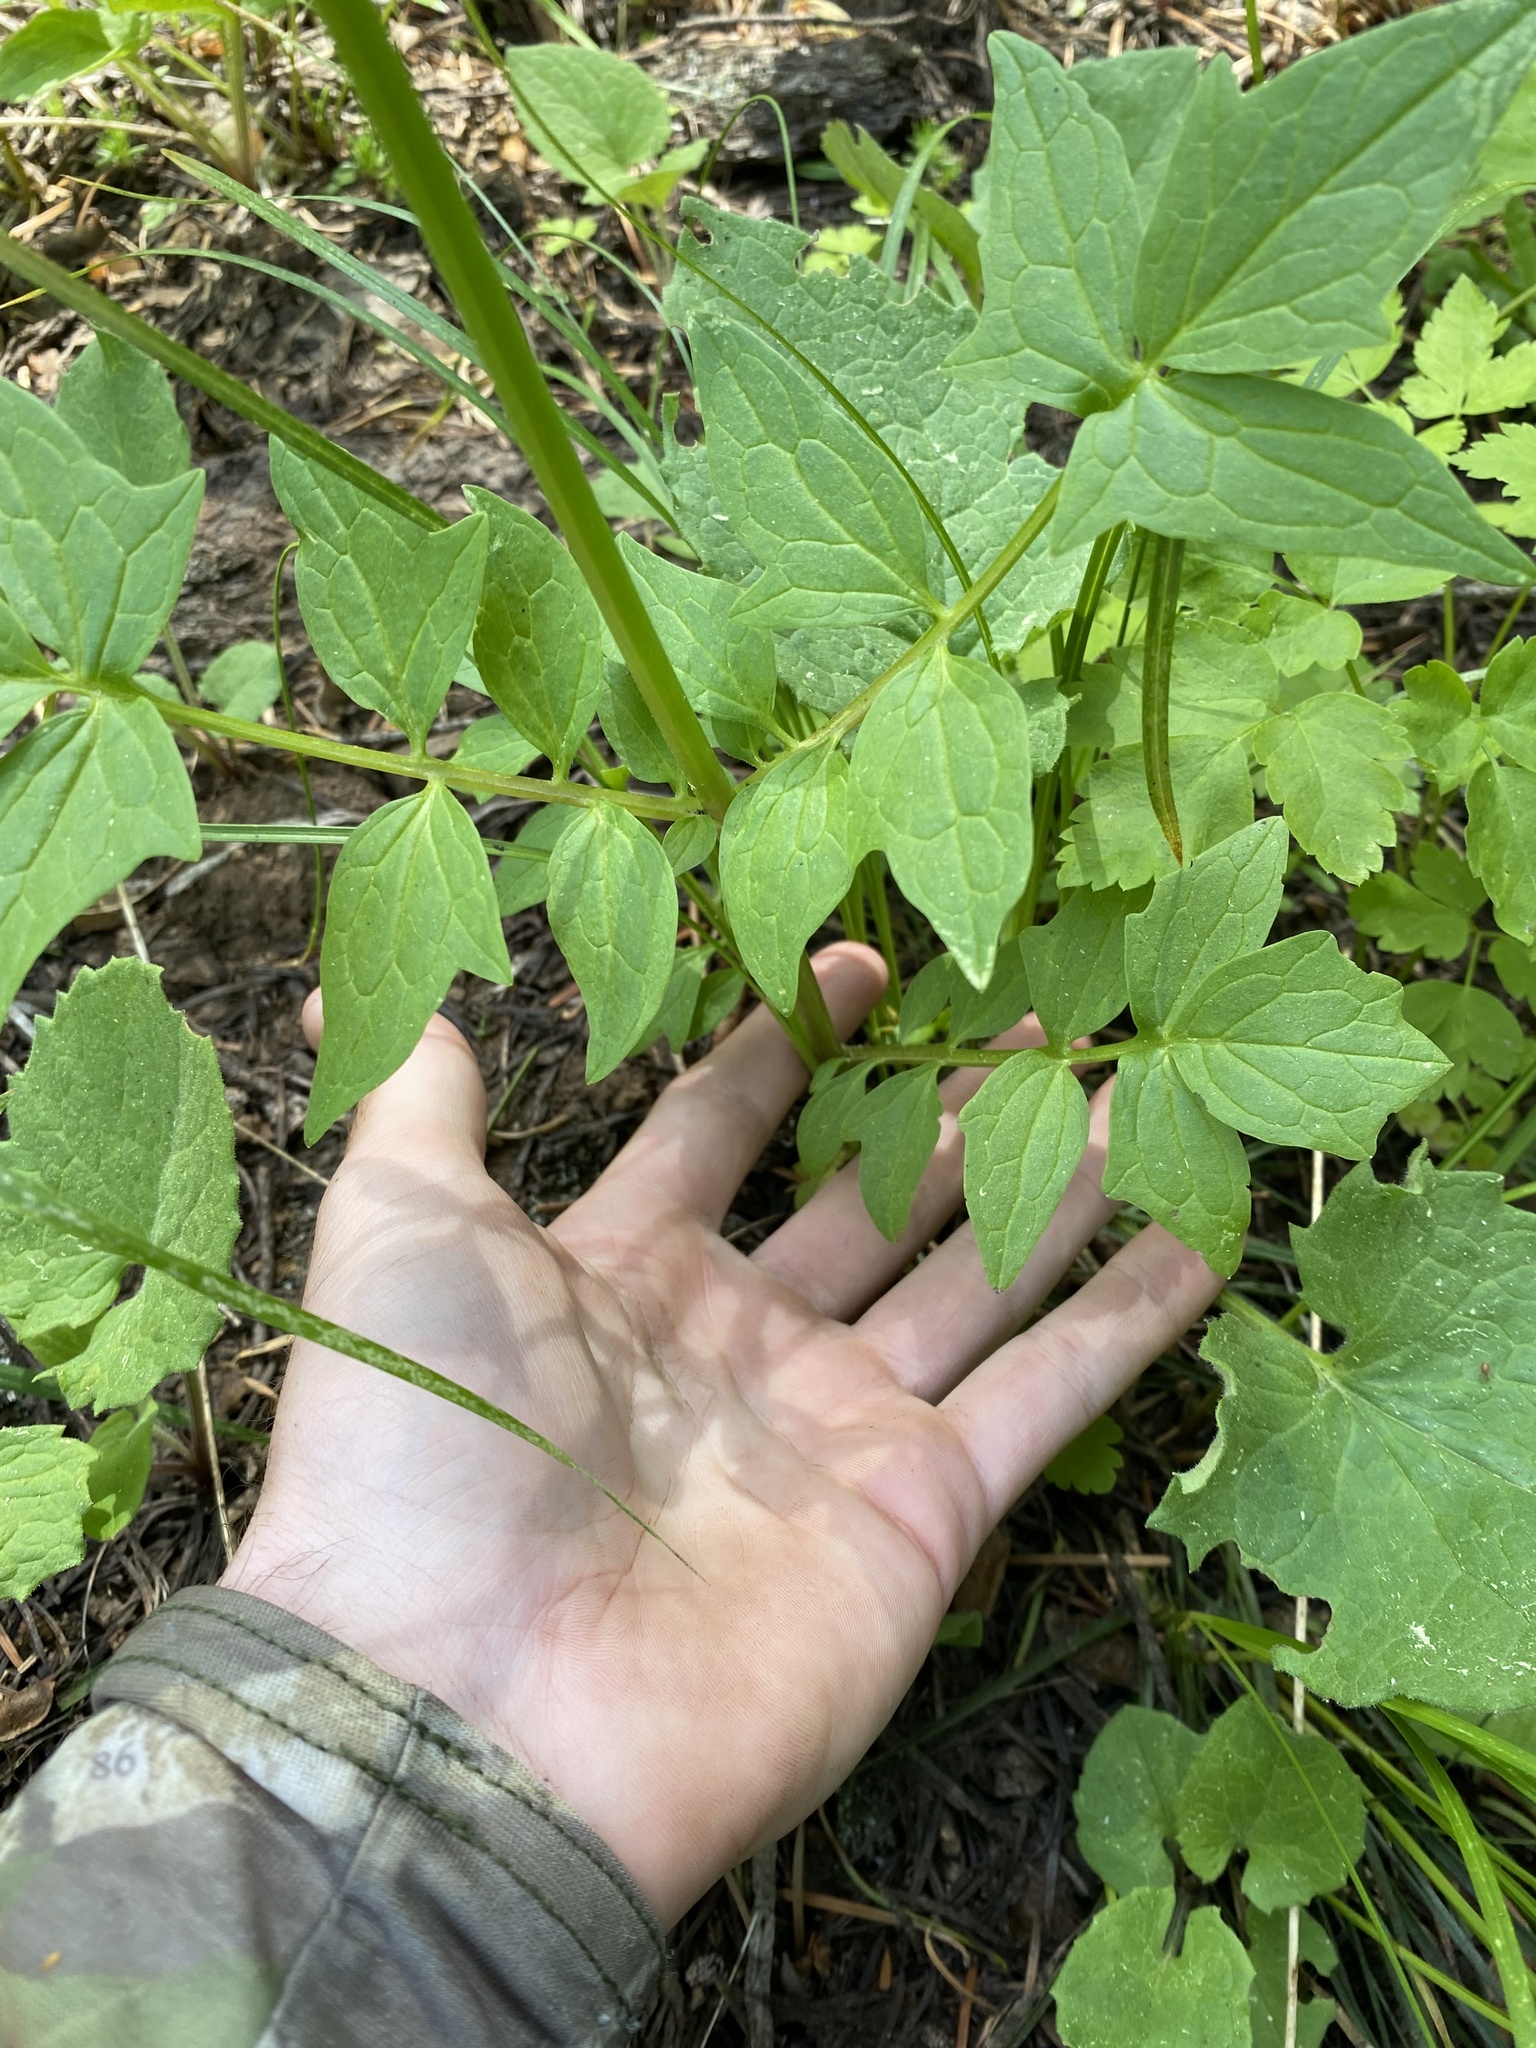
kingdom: Plantae
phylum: Tracheophyta
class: Magnoliopsida
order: Dipsacales
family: Caprifoliaceae
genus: Valeriana
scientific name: Valeriana sitchensis
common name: Pacific valerian
